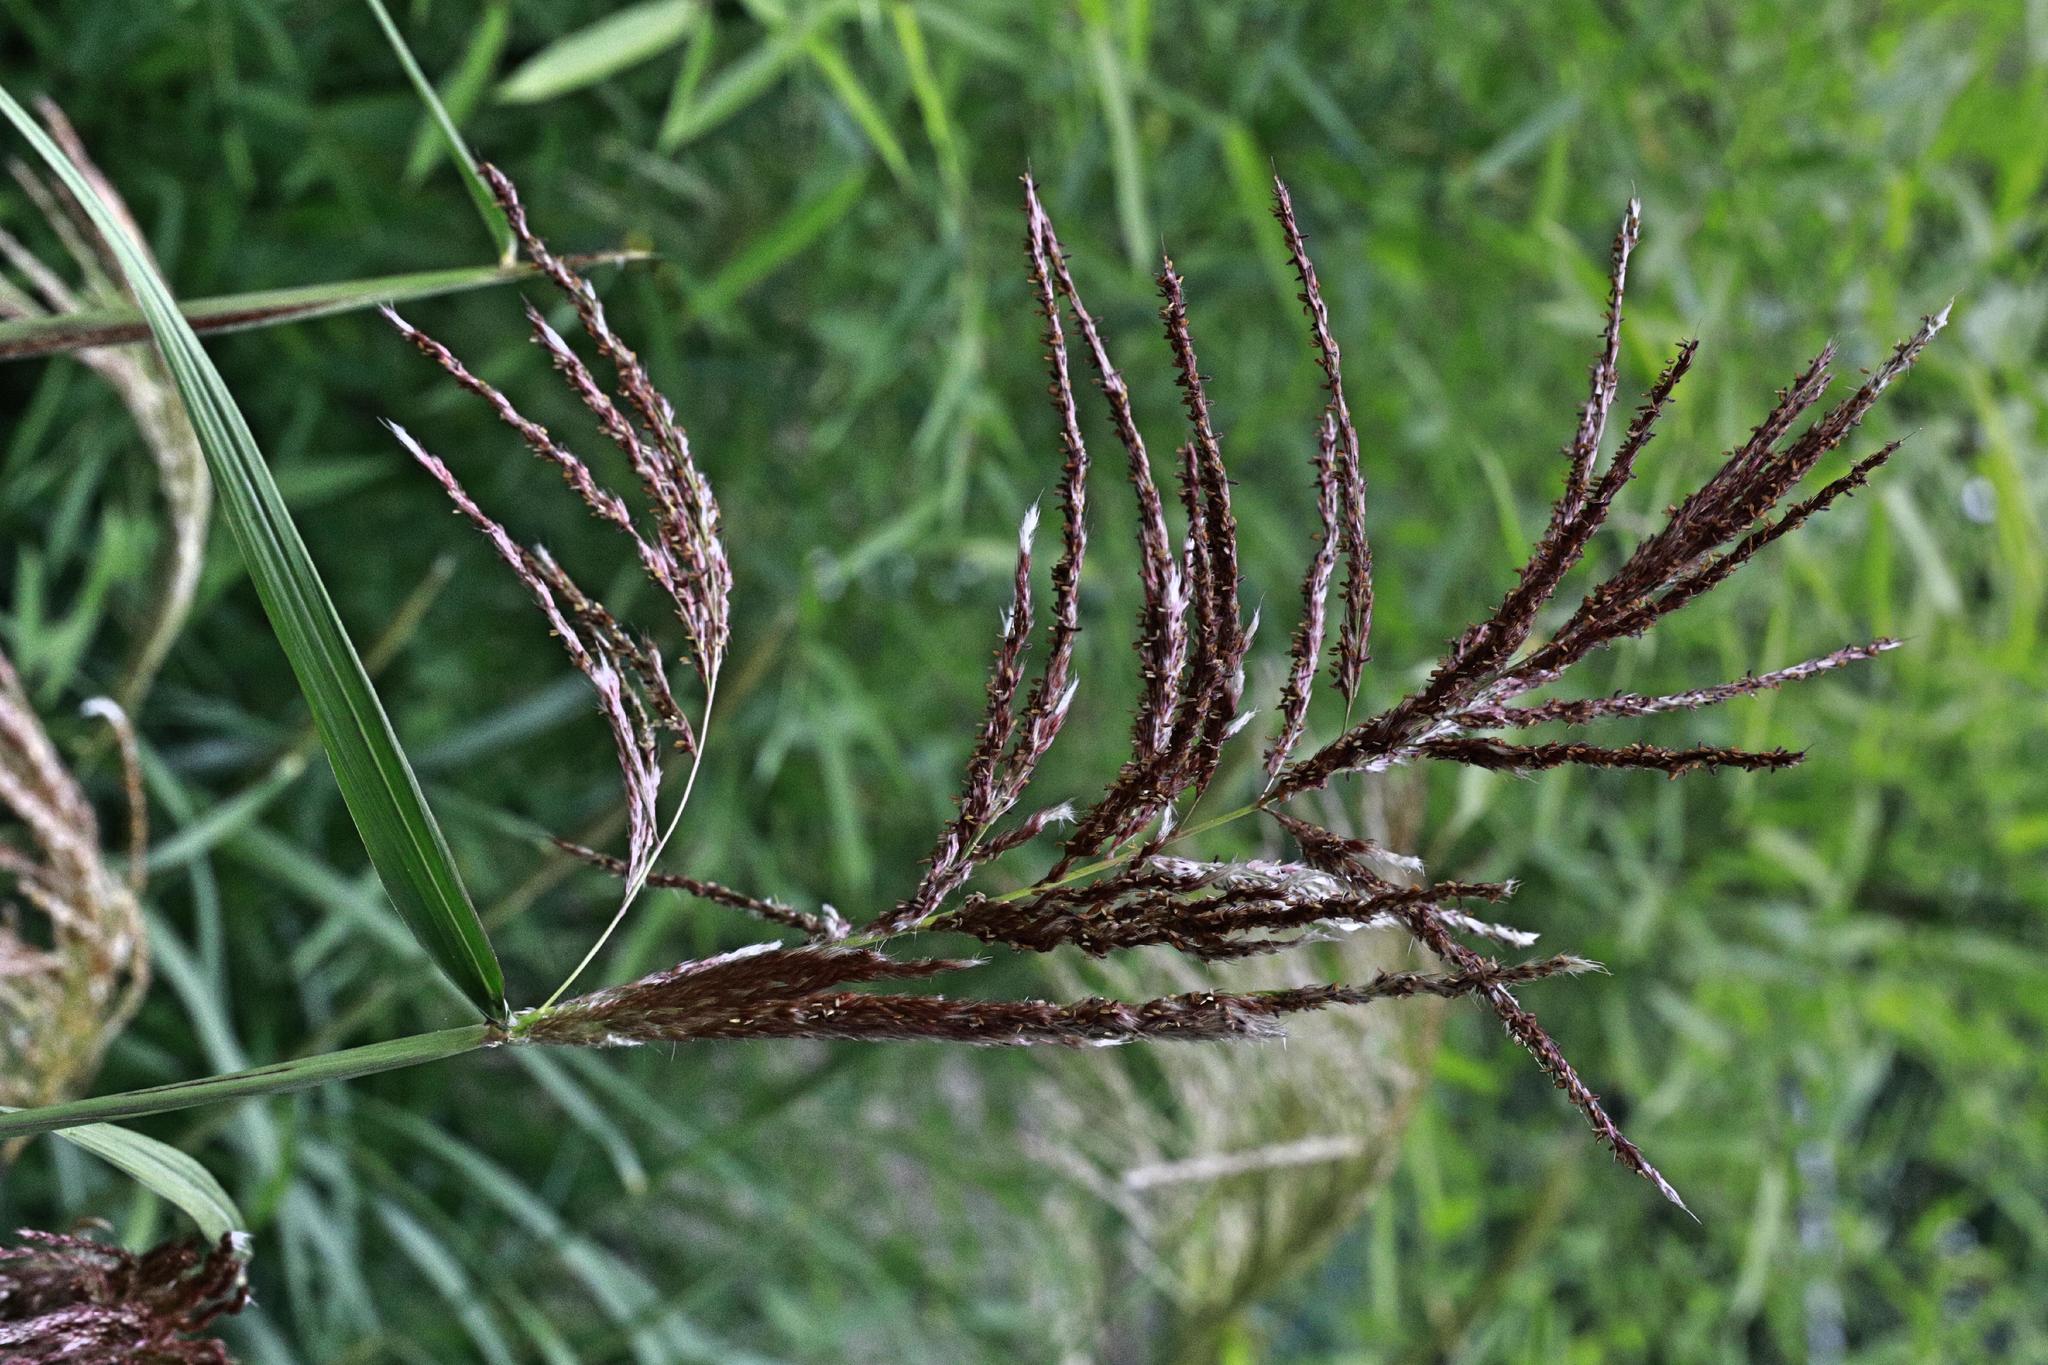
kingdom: Plantae
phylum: Tracheophyta
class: Liliopsida
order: Poales
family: Poaceae
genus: Phragmites
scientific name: Phragmites australis
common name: Common reed
